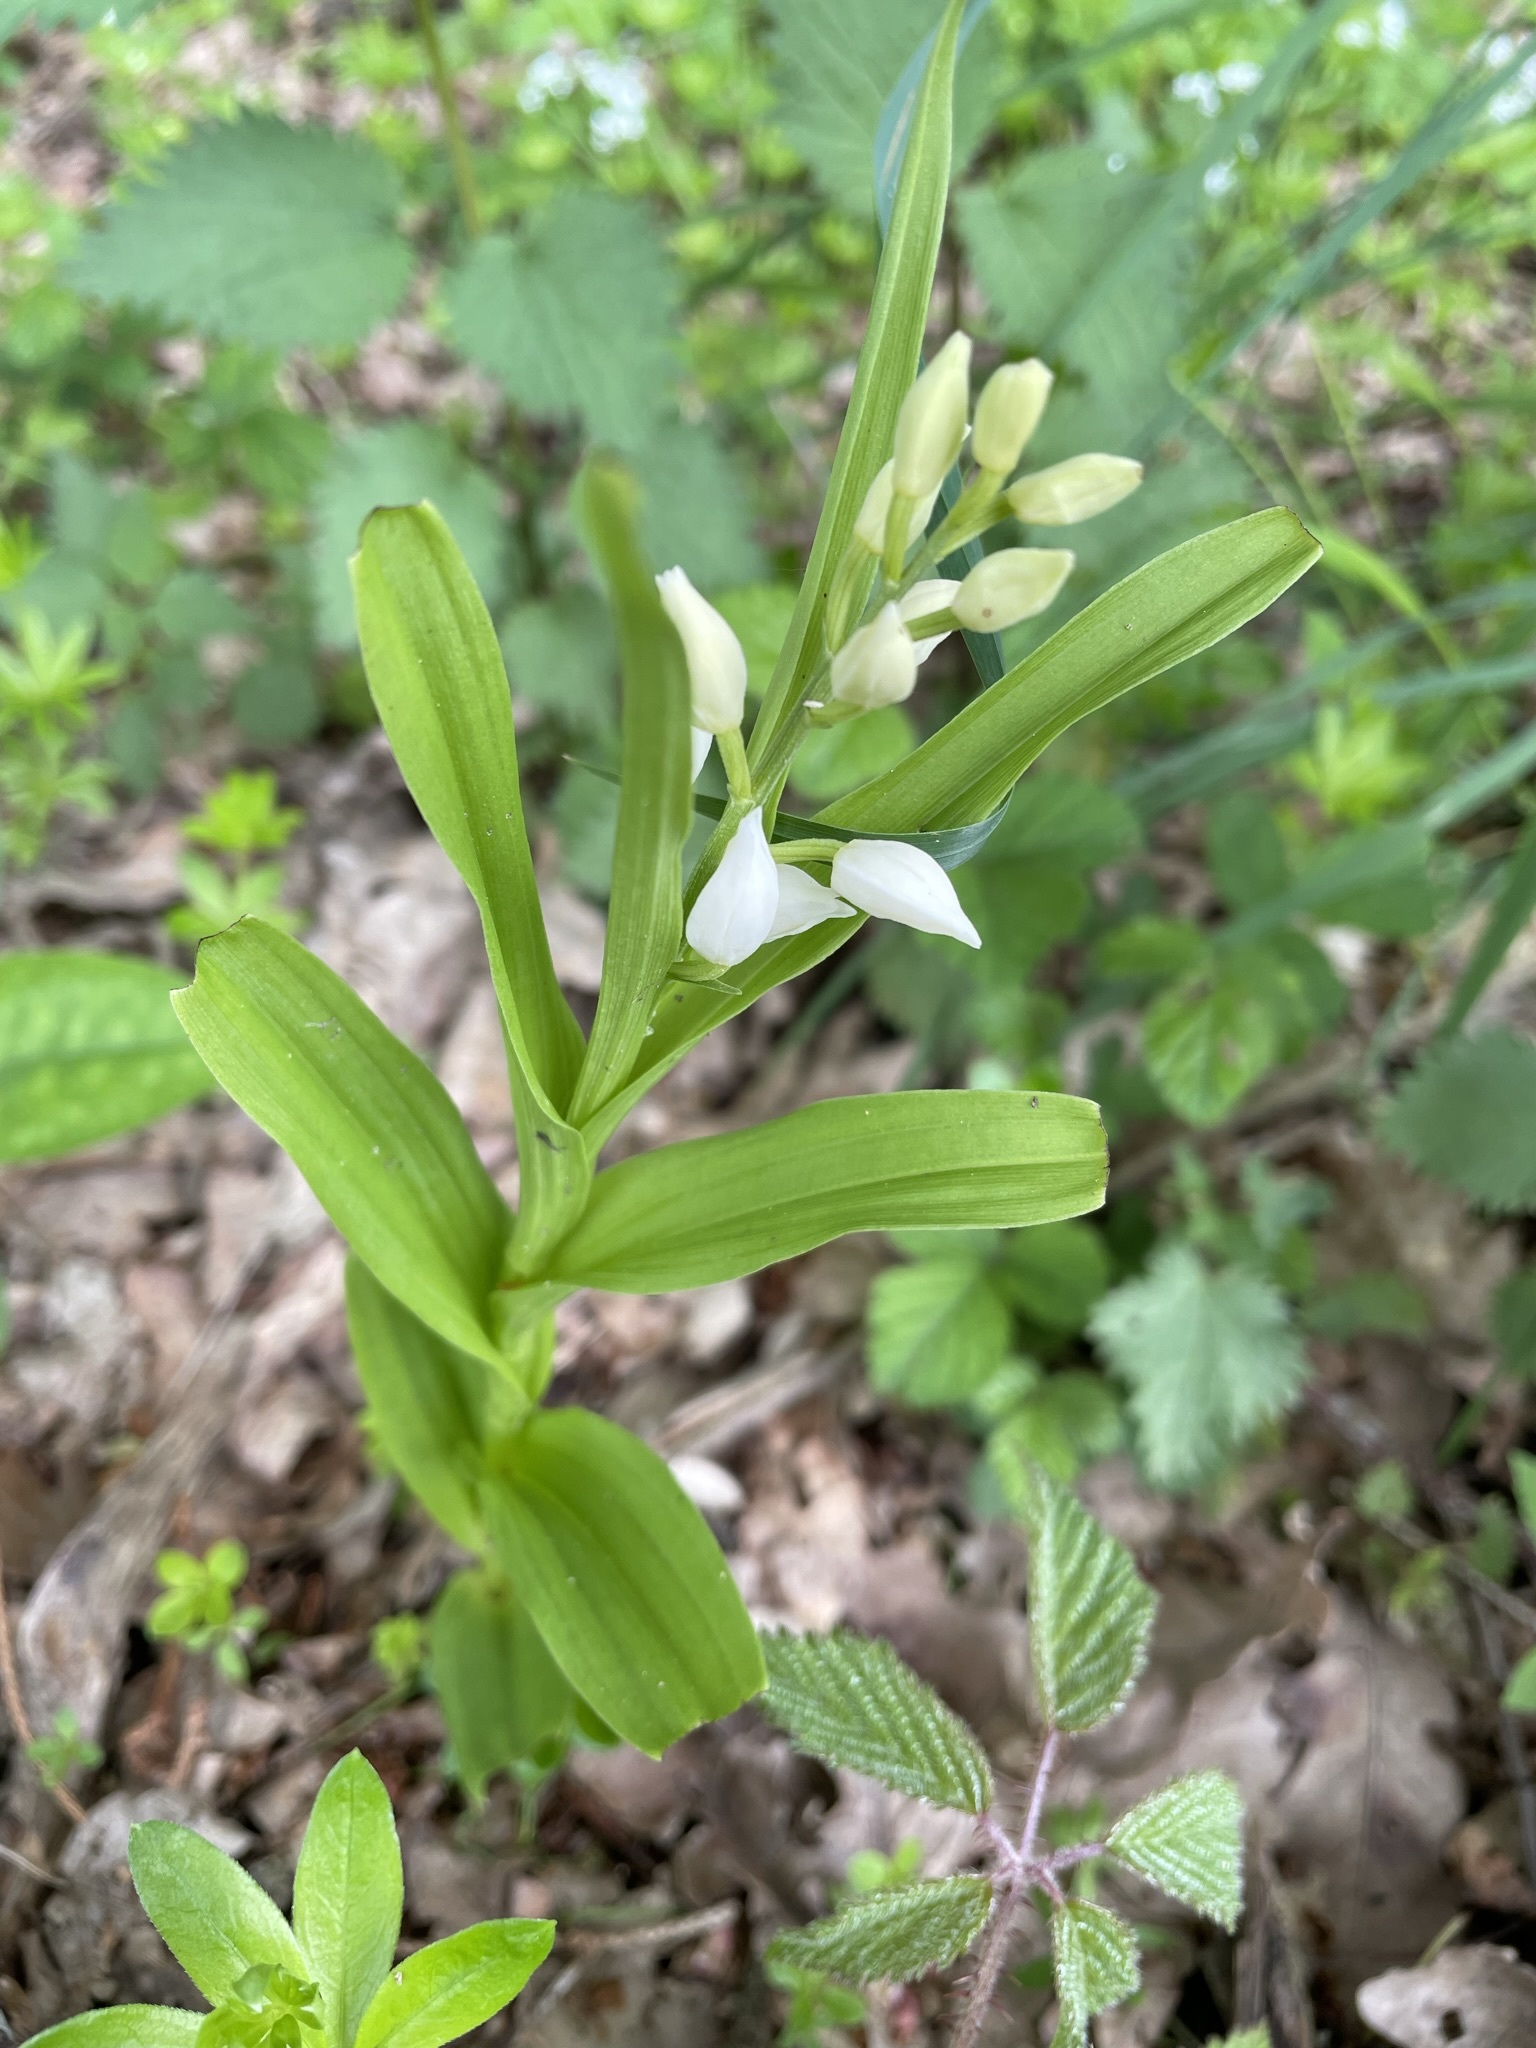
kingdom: Plantae
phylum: Tracheophyta
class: Liliopsida
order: Asparagales
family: Orchidaceae
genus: Cephalanthera
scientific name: Cephalanthera longifolia
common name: Narrow-leaved helleborine
